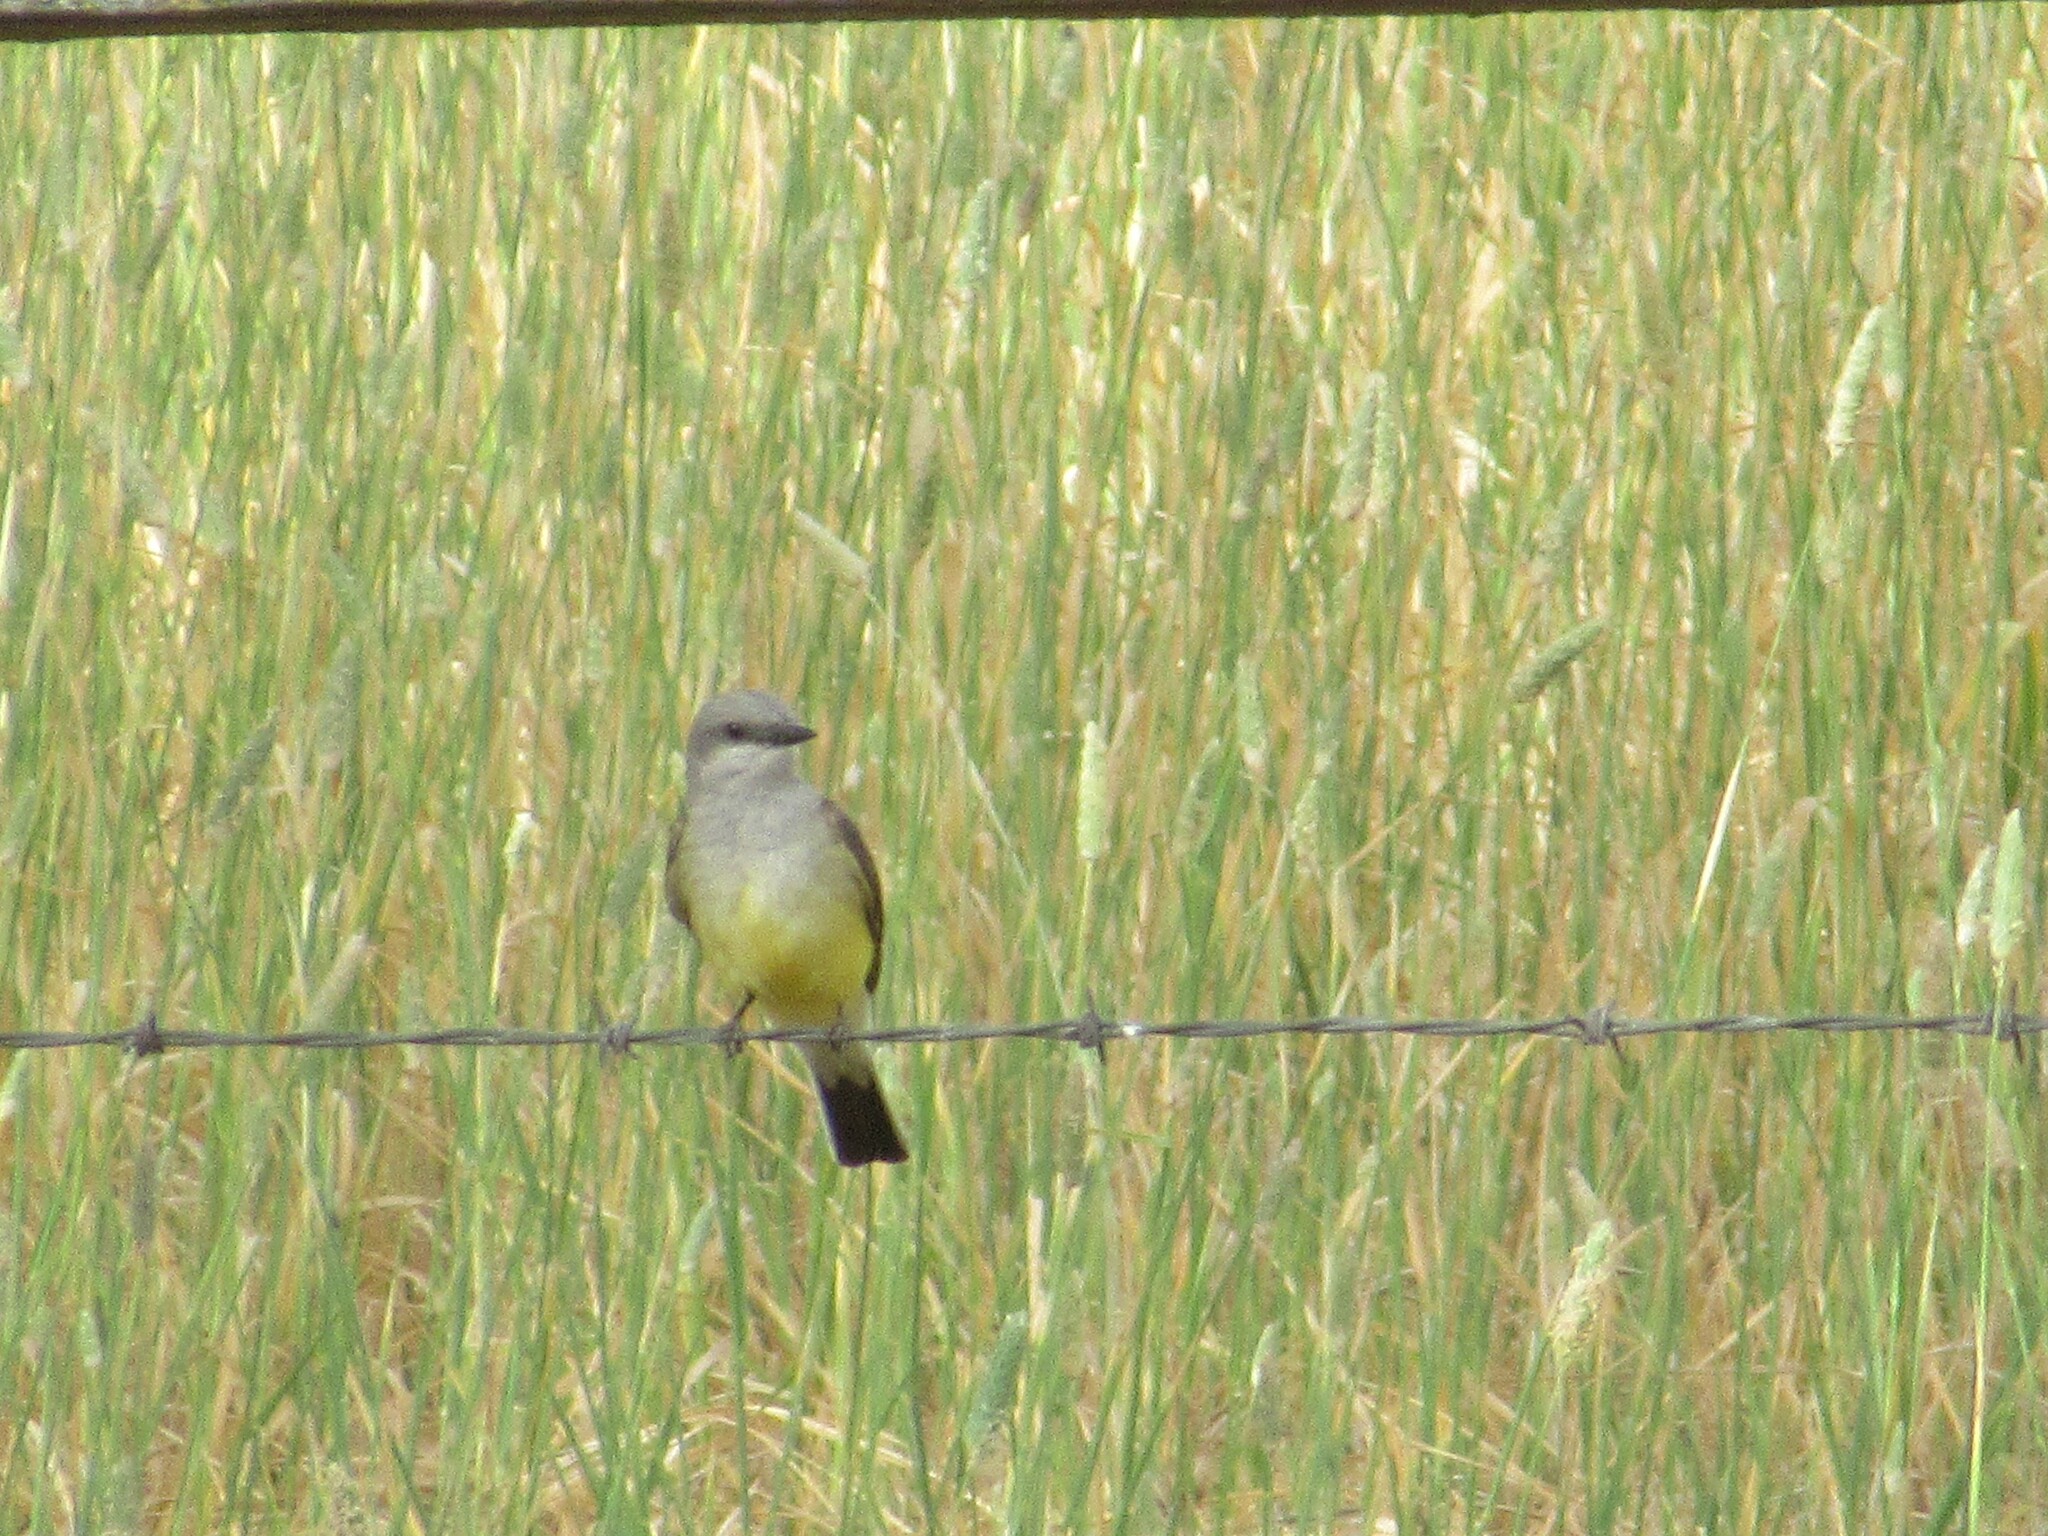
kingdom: Animalia
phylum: Chordata
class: Aves
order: Passeriformes
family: Tyrannidae
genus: Tyrannus
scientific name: Tyrannus verticalis
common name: Western kingbird
